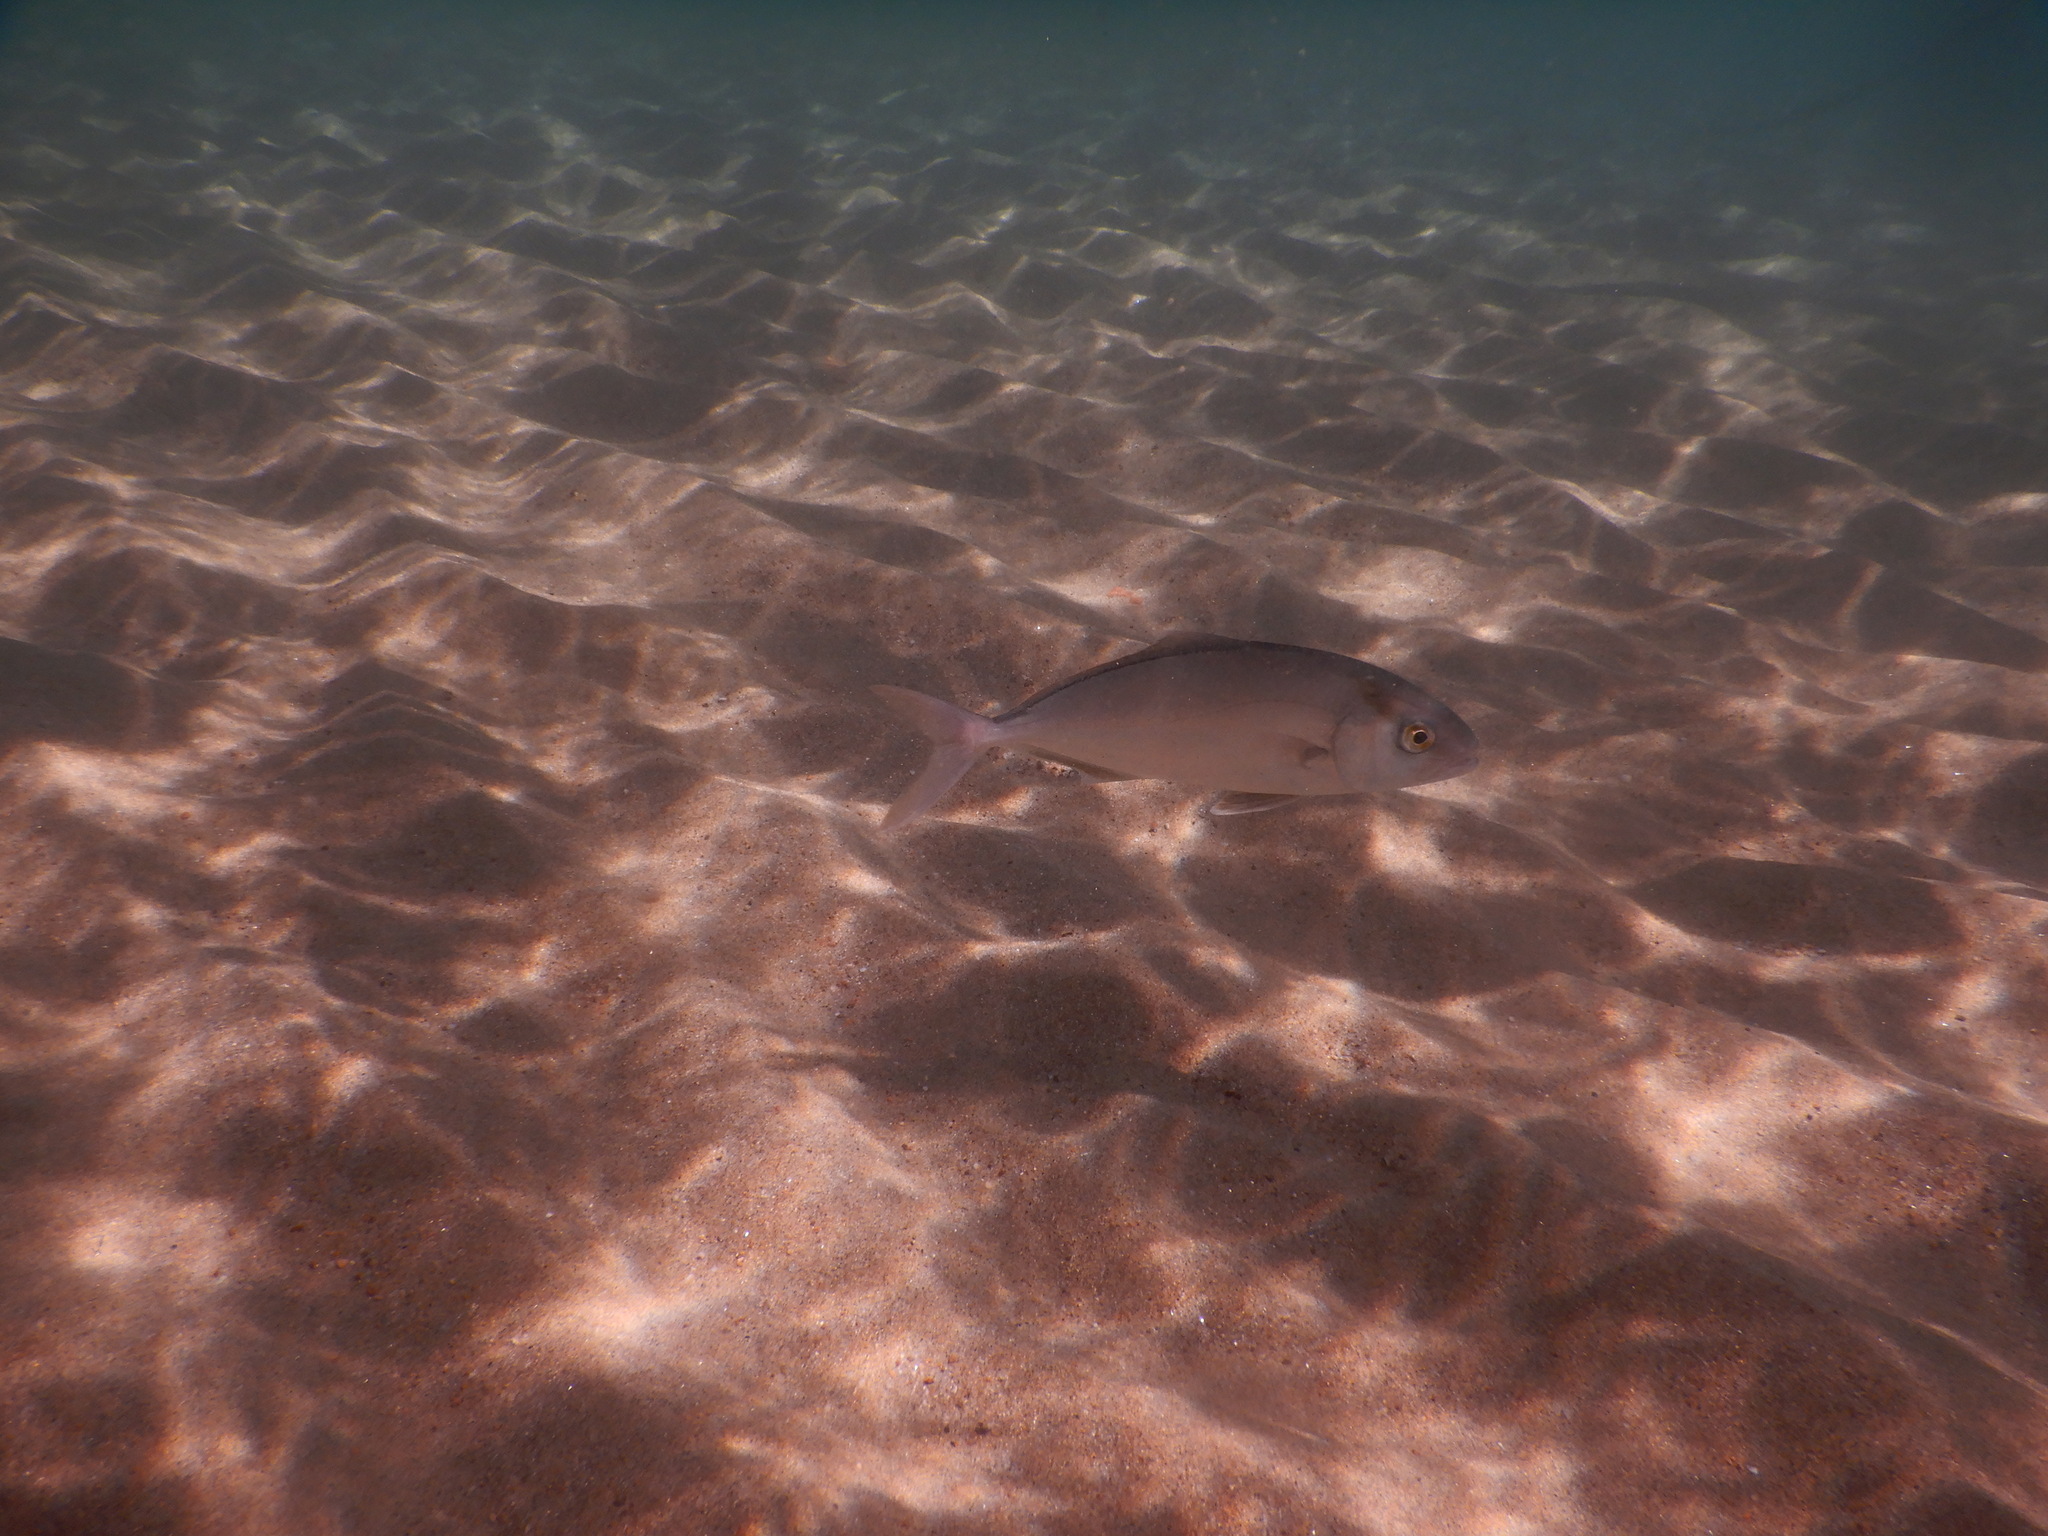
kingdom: Animalia
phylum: Chordata
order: Perciformes
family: Carangidae
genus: Seriola
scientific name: Seriola dumerili
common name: Greater amberjack
